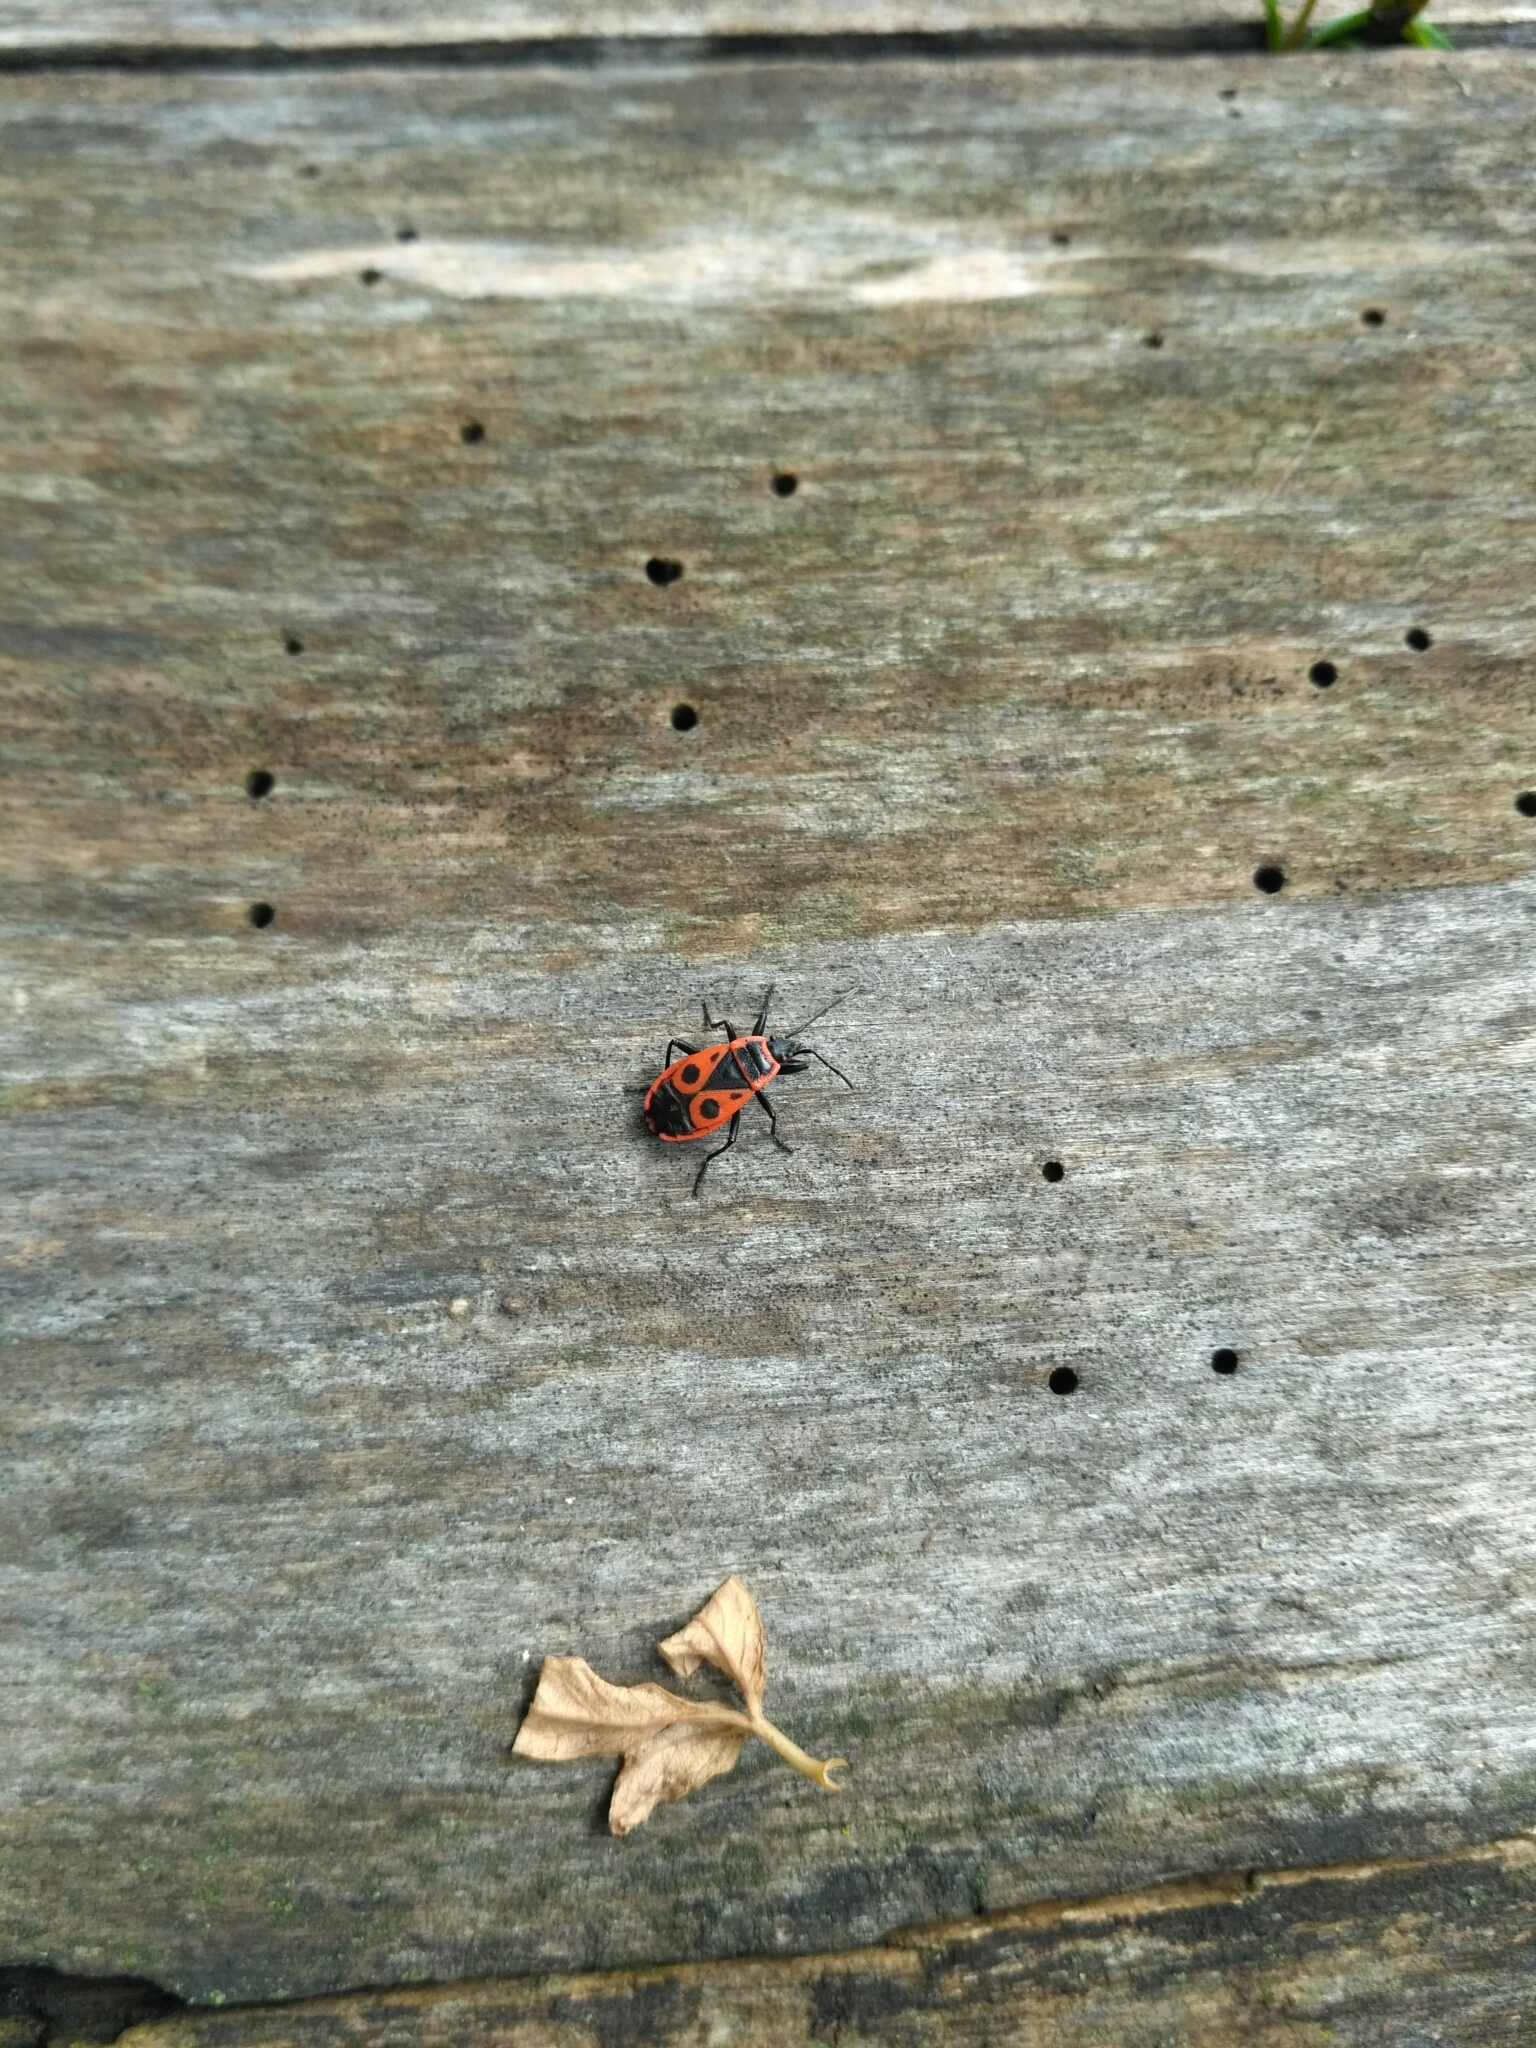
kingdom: Animalia
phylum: Arthropoda
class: Insecta
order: Hemiptera
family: Pyrrhocoridae
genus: Pyrrhocoris
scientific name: Pyrrhocoris apterus
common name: Firebug
